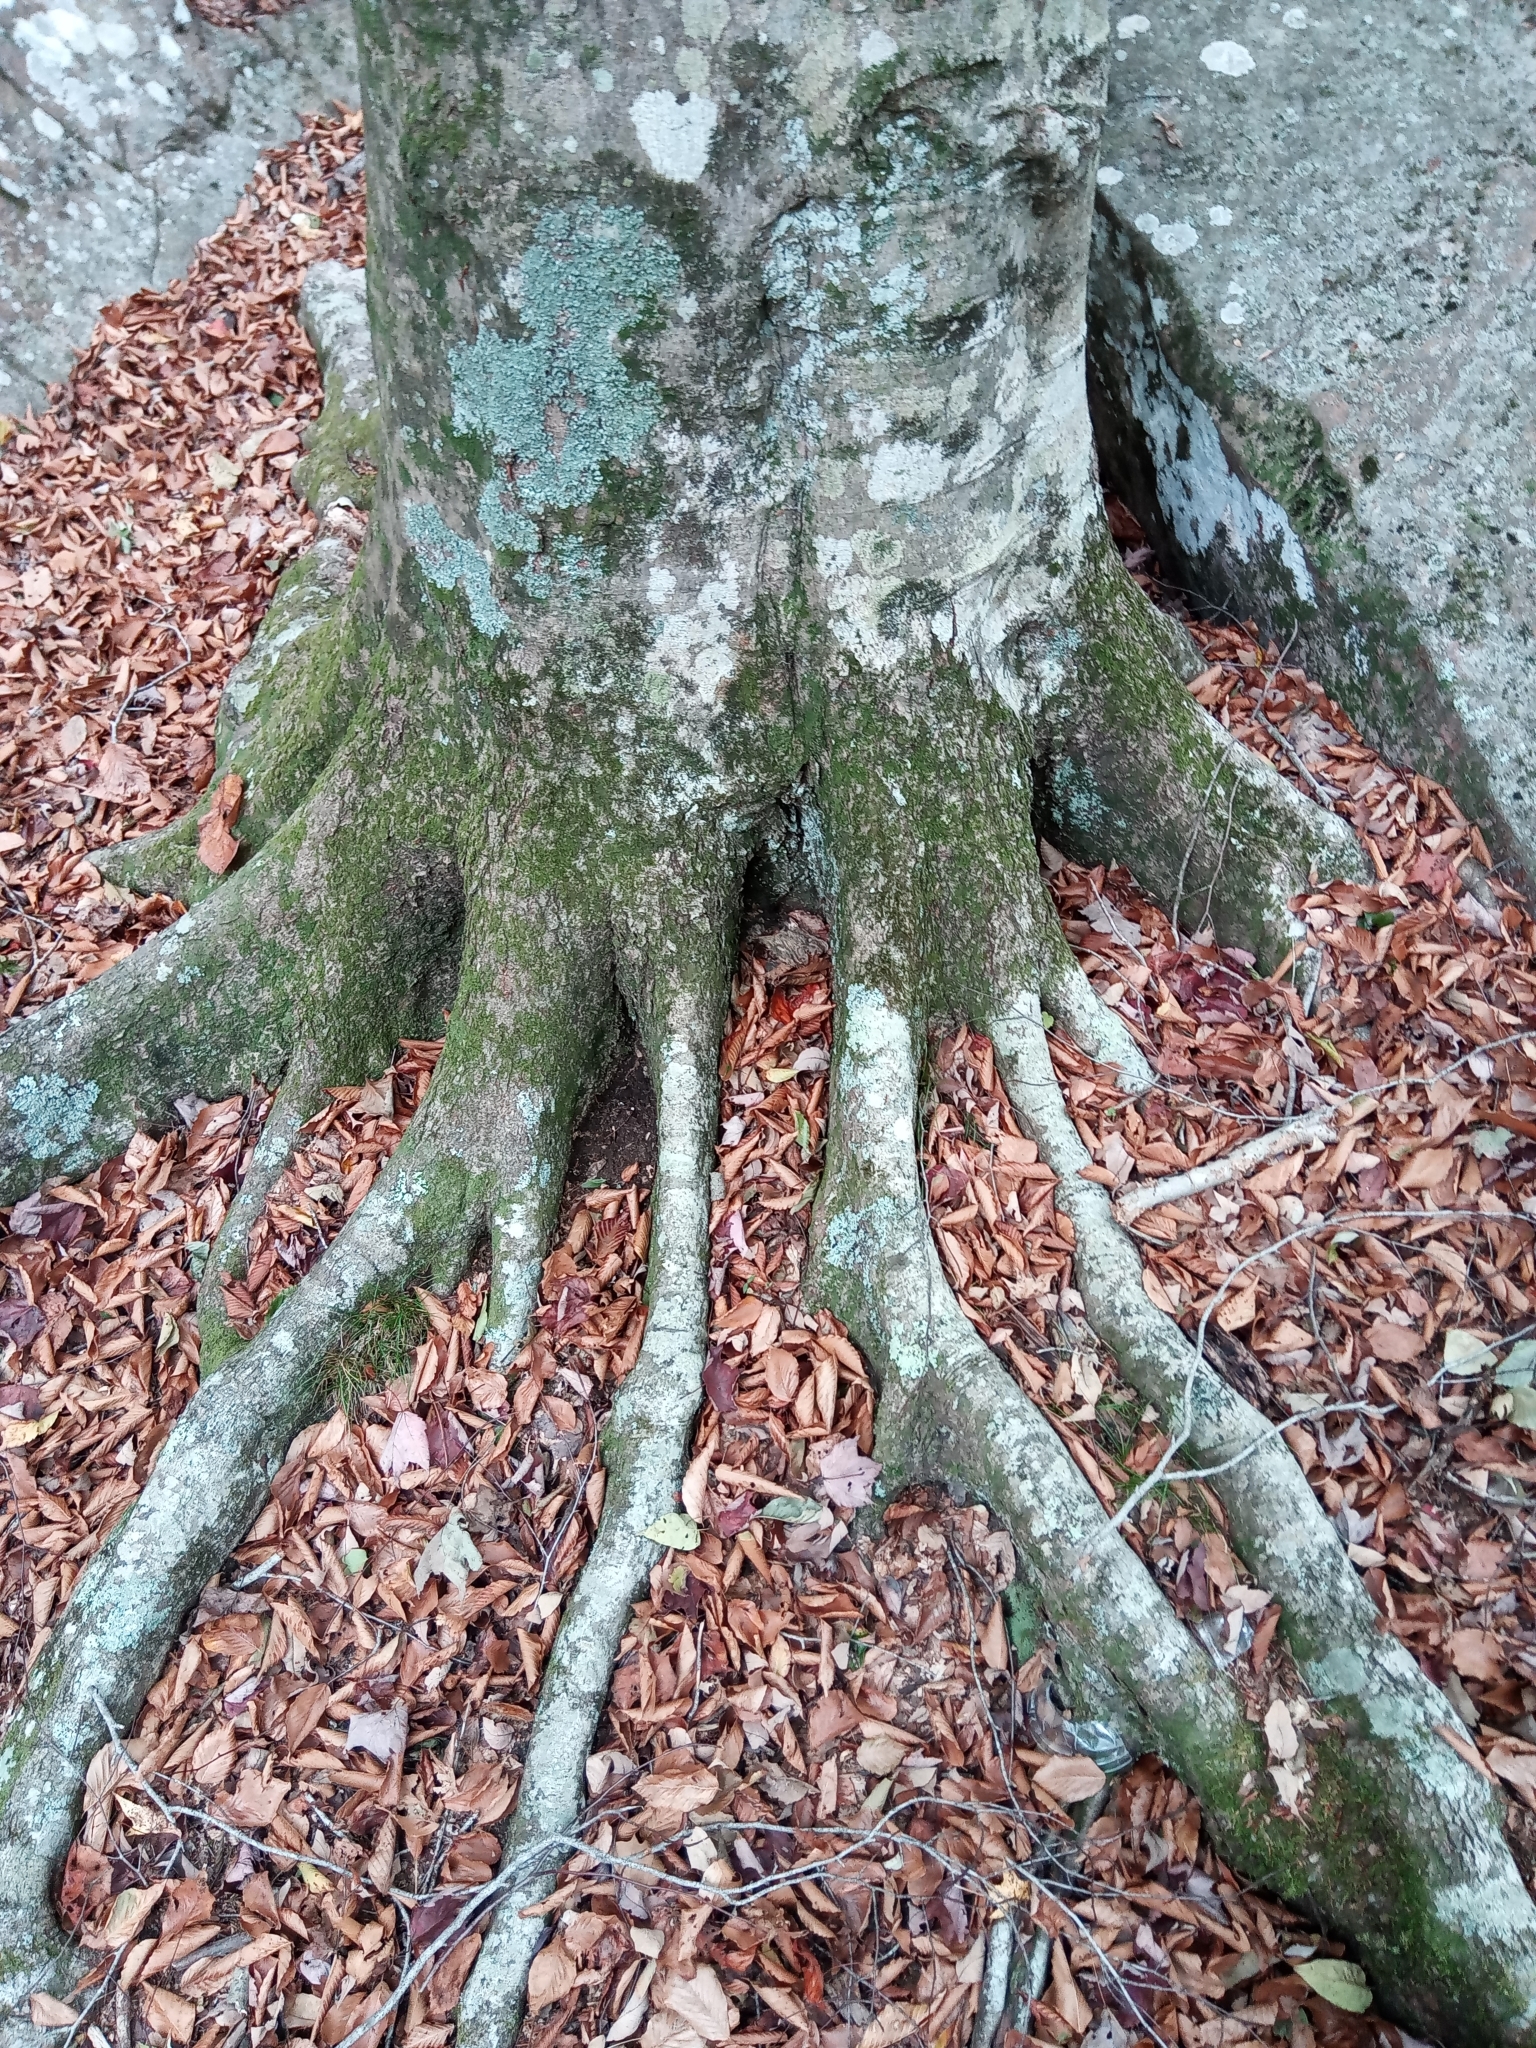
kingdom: Plantae
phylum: Tracheophyta
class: Magnoliopsida
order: Fagales
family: Fagaceae
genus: Fagus
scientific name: Fagus grandifolia
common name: American beech
